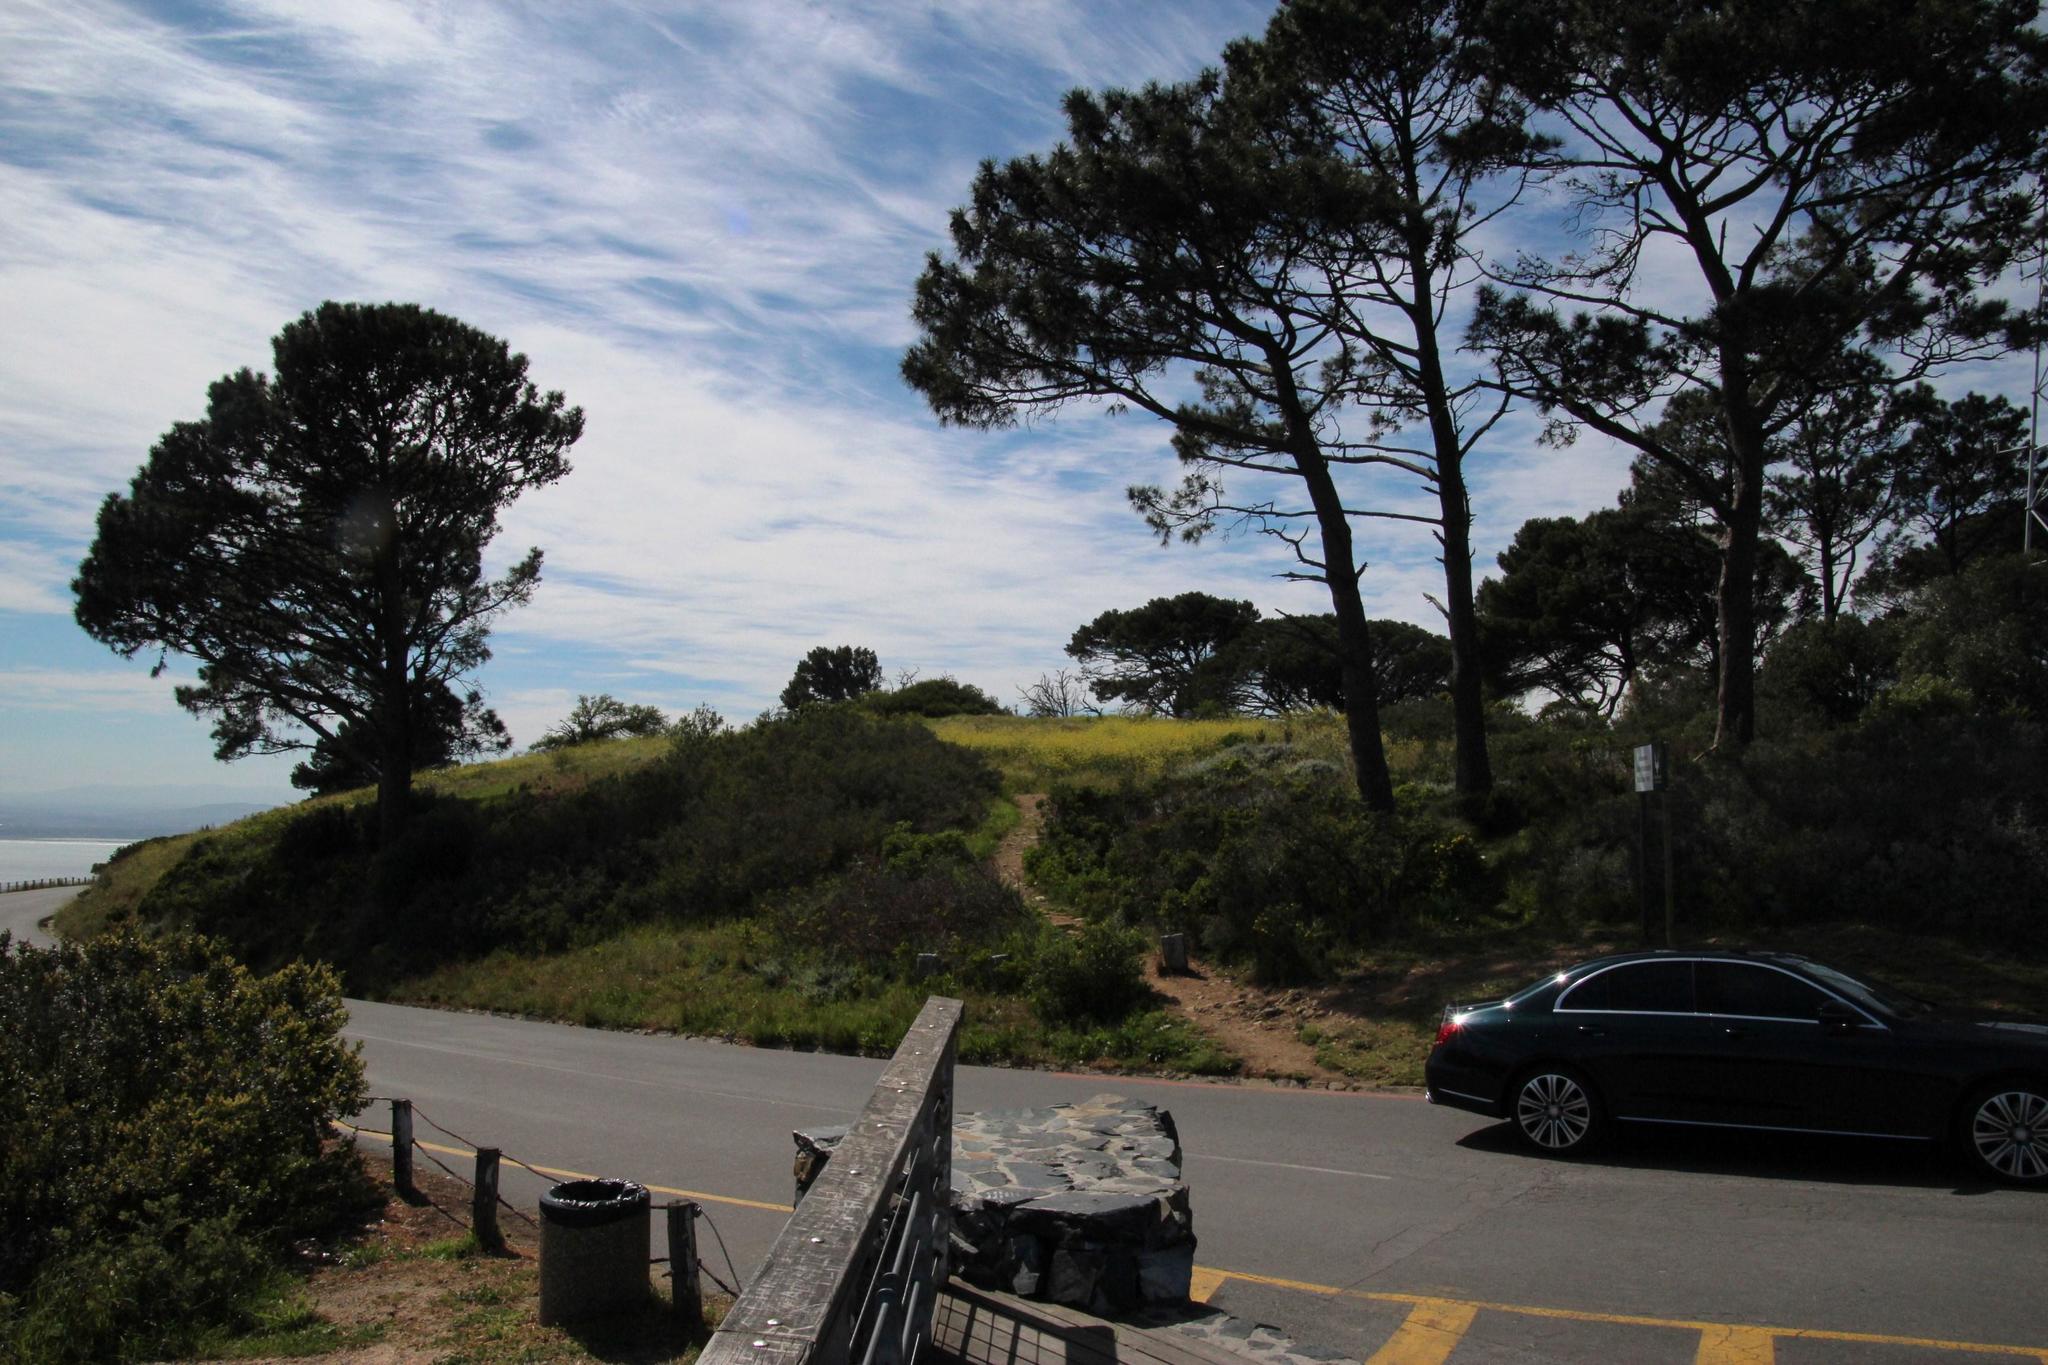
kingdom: Plantae
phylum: Tracheophyta
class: Magnoliopsida
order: Brassicales
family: Brassicaceae
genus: Rapistrum
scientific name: Rapistrum rugosum
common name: Annual bastardcabbage
